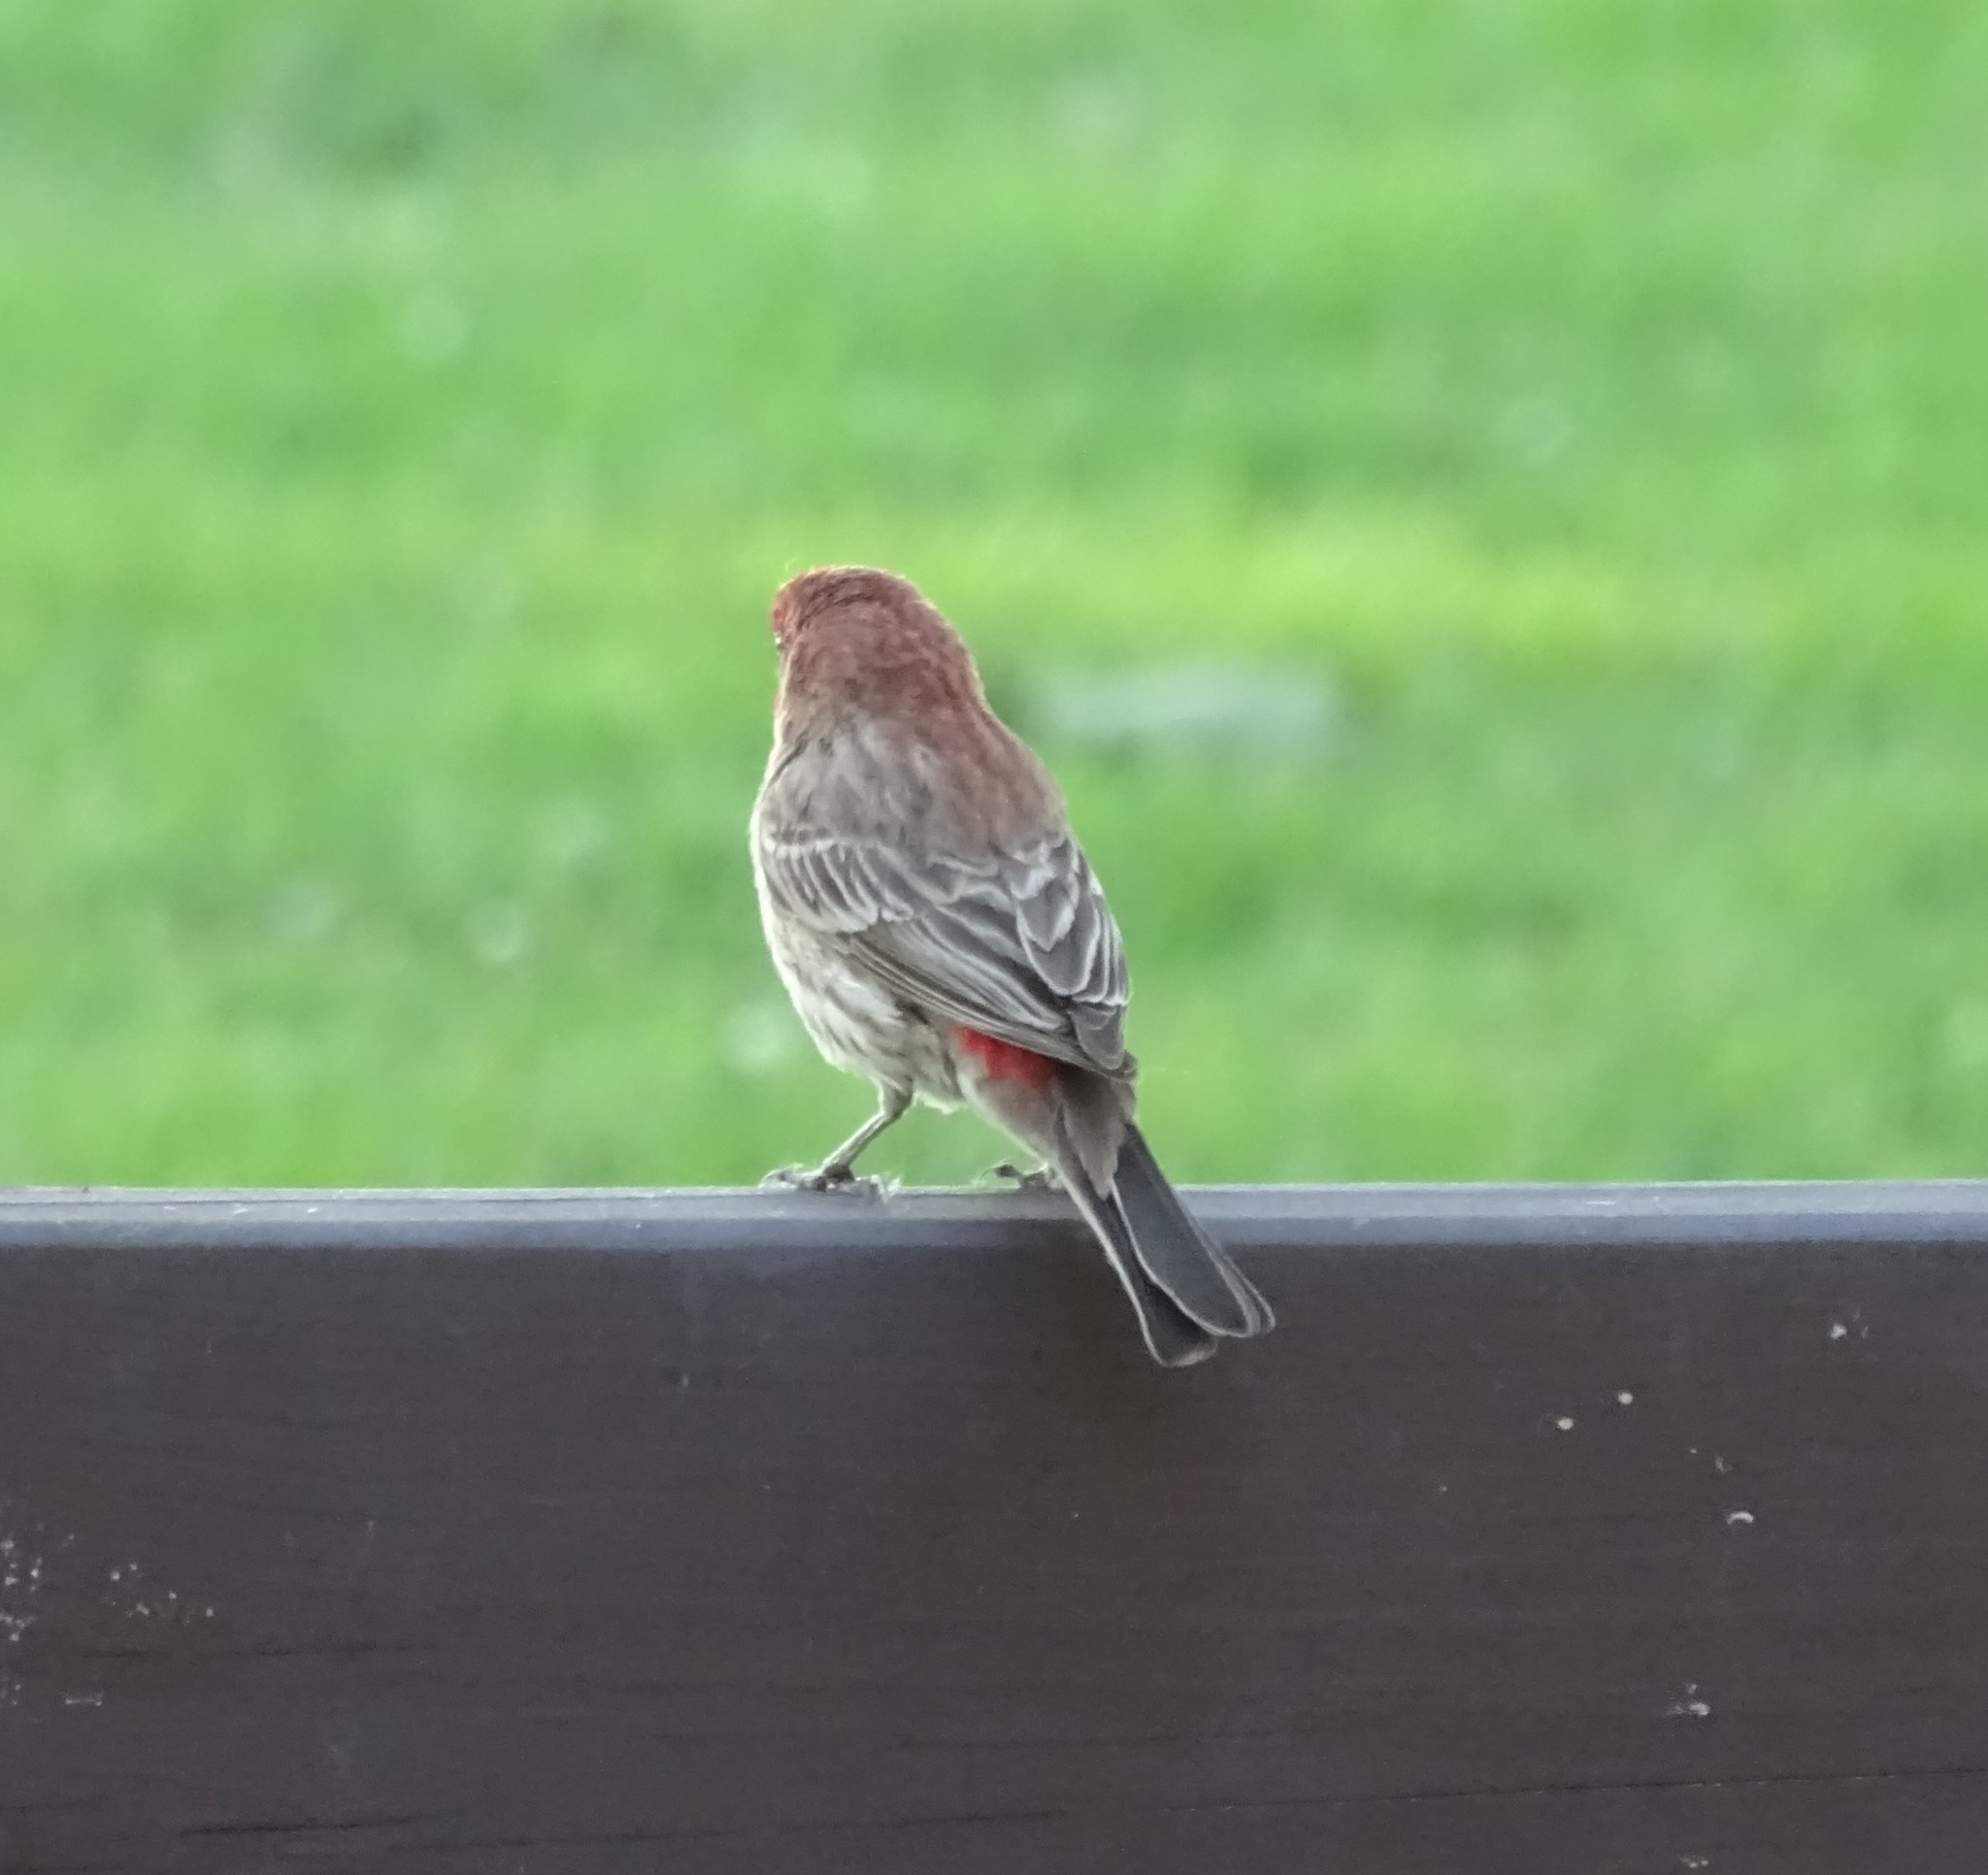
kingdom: Animalia
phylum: Chordata
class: Aves
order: Passeriformes
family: Fringillidae
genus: Haemorhous
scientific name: Haemorhous mexicanus
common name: House finch
